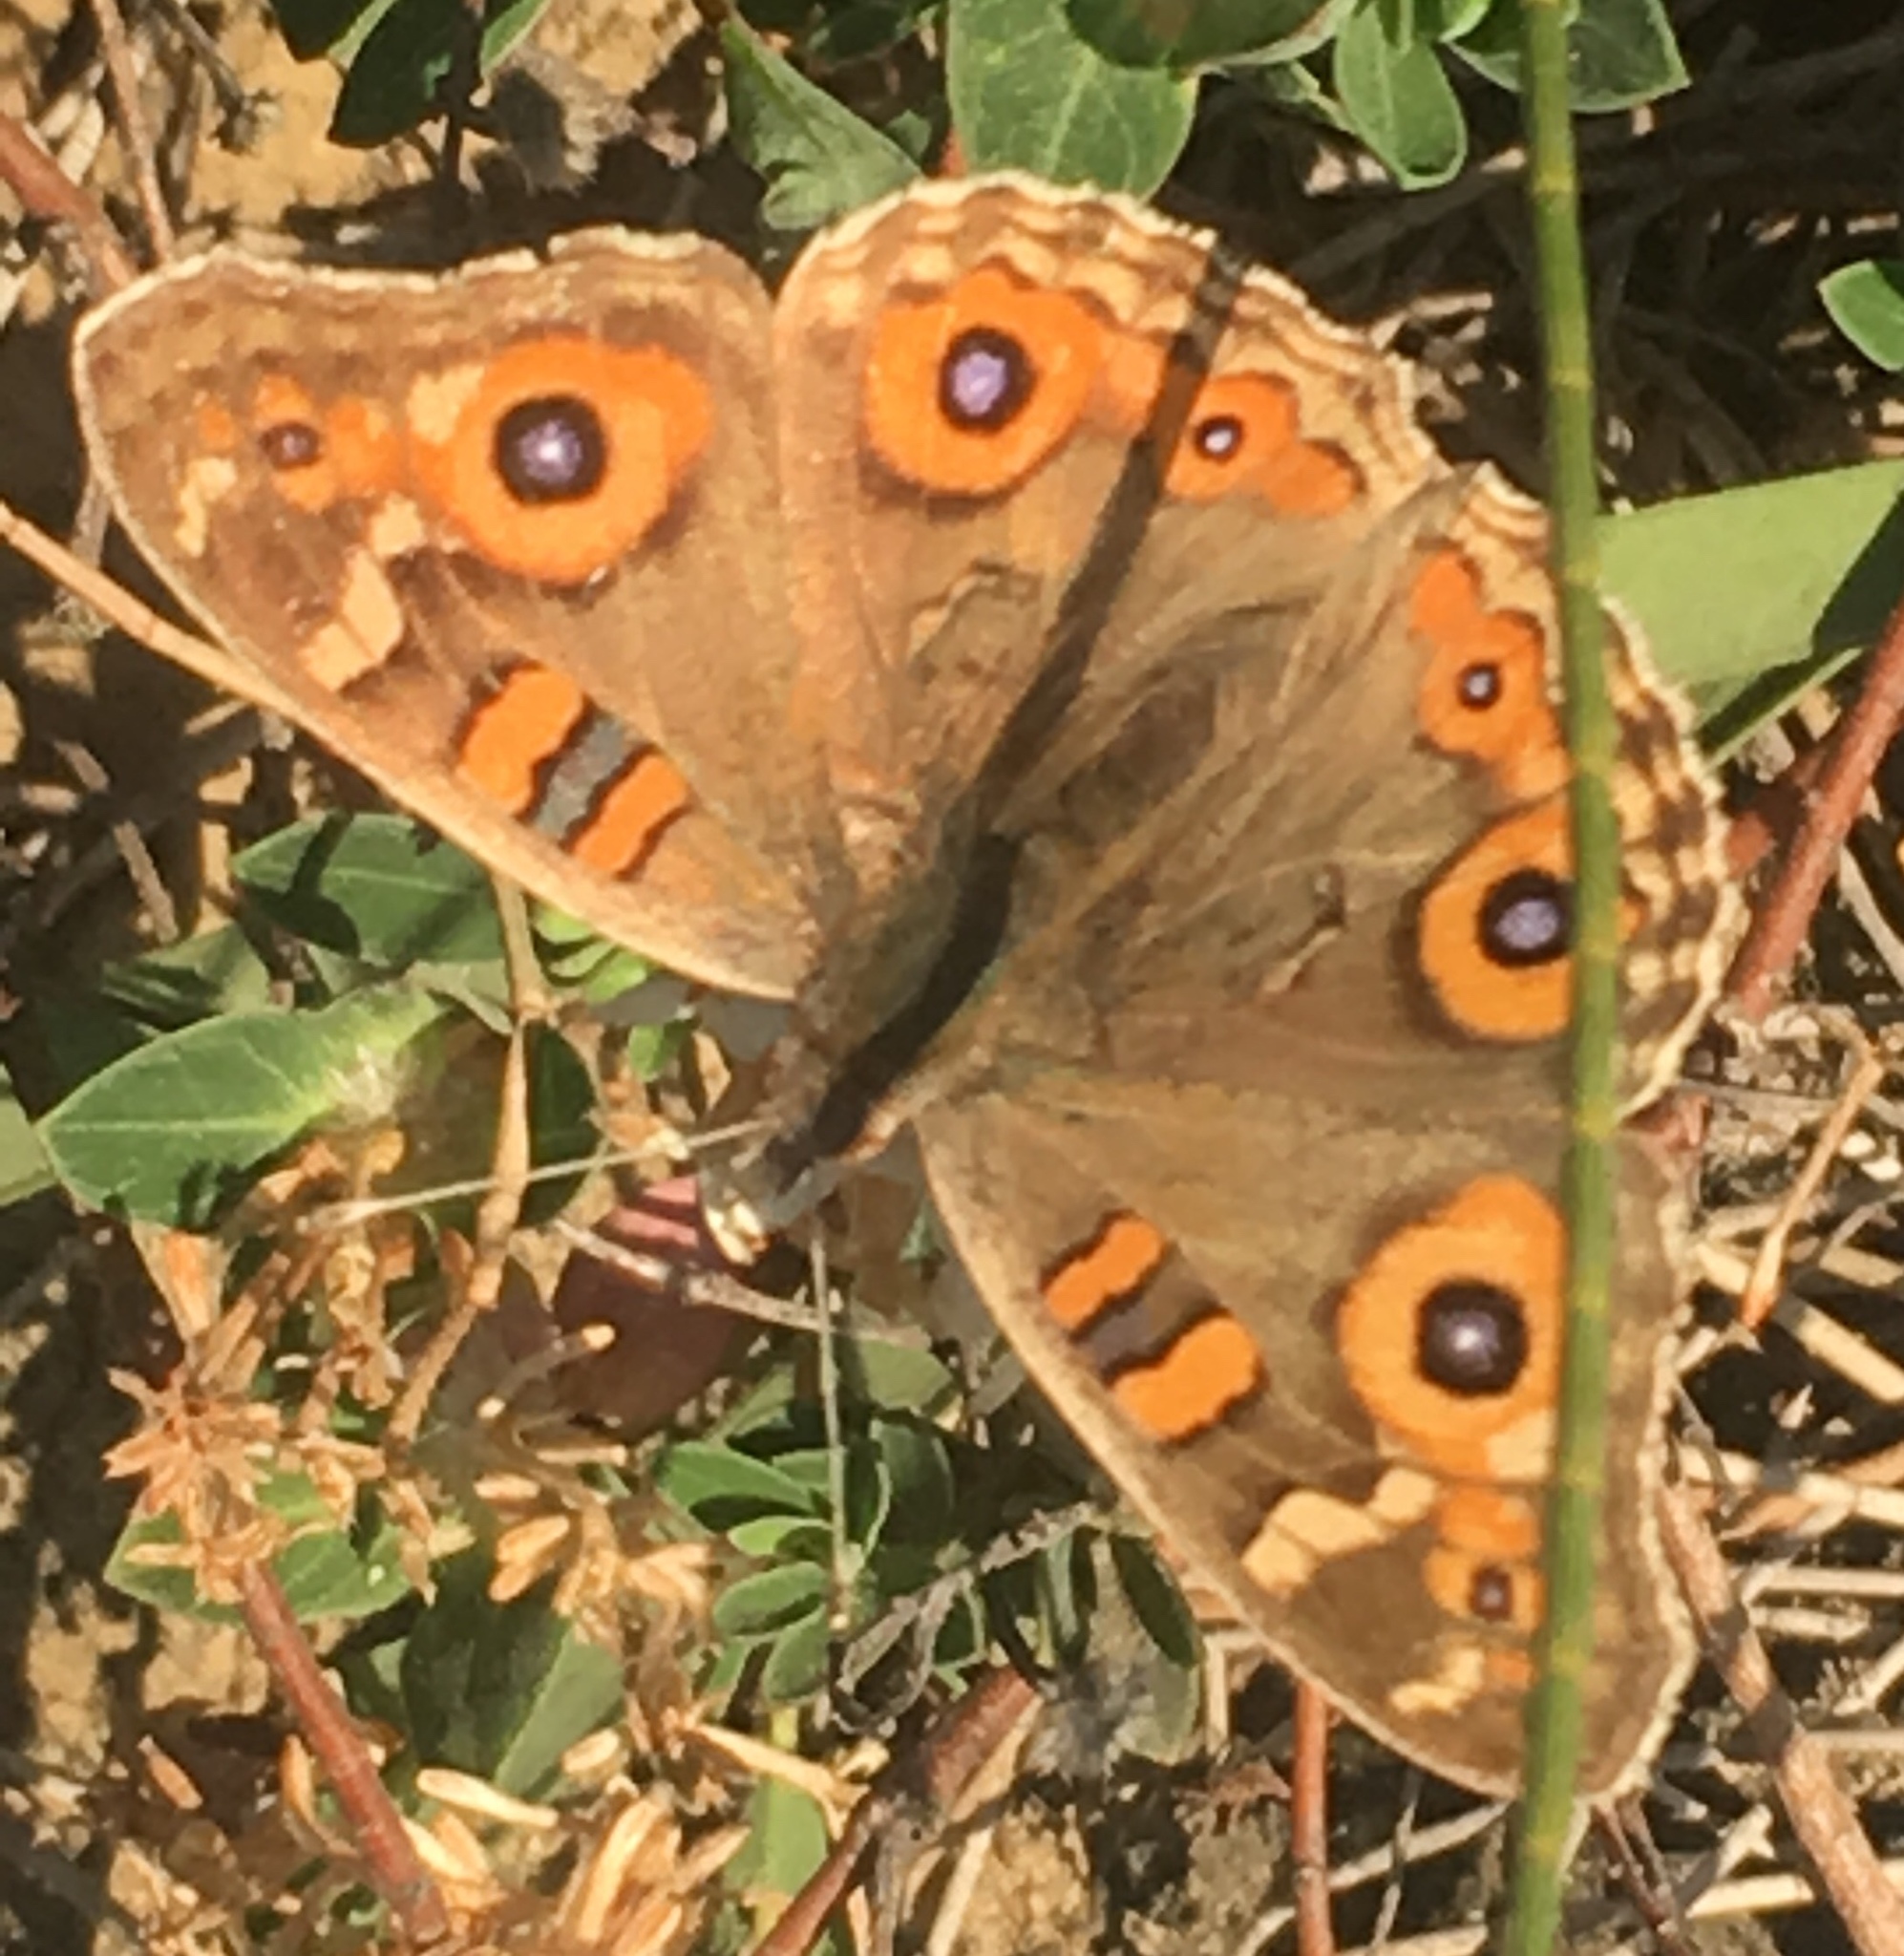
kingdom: Animalia
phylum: Arthropoda
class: Insecta
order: Lepidoptera
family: Nymphalidae
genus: Junonia
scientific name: Junonia villida
